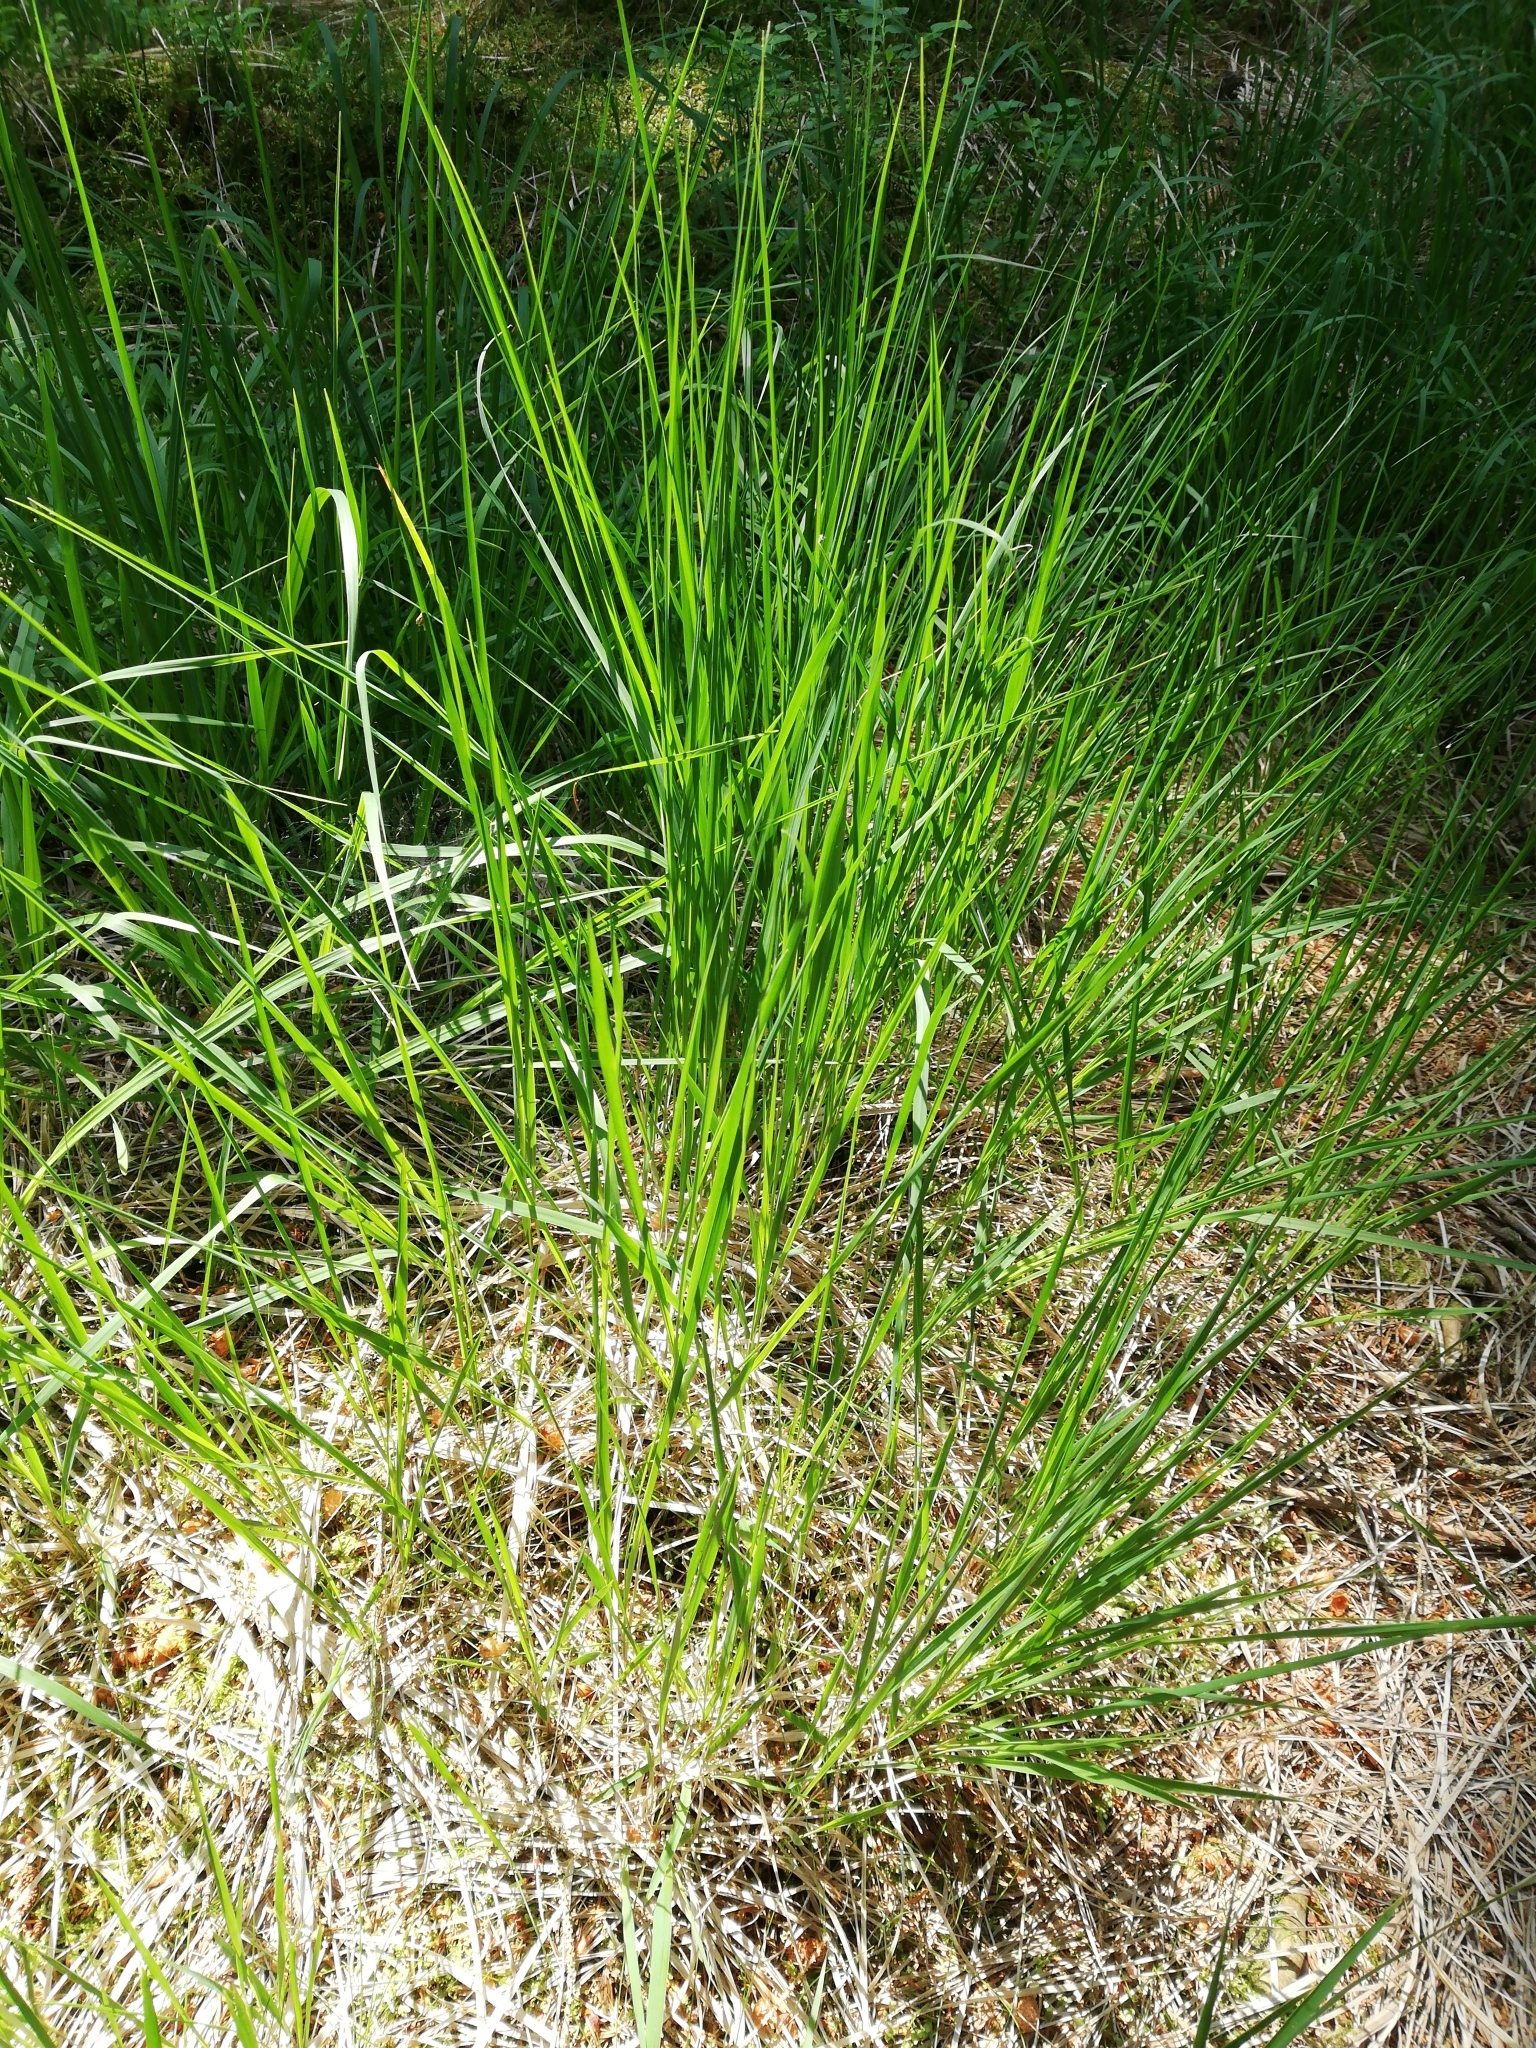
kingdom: Plantae
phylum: Tracheophyta
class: Liliopsida
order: Poales
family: Poaceae
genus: Molinia
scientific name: Molinia caerulea
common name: Purple moor-grass
